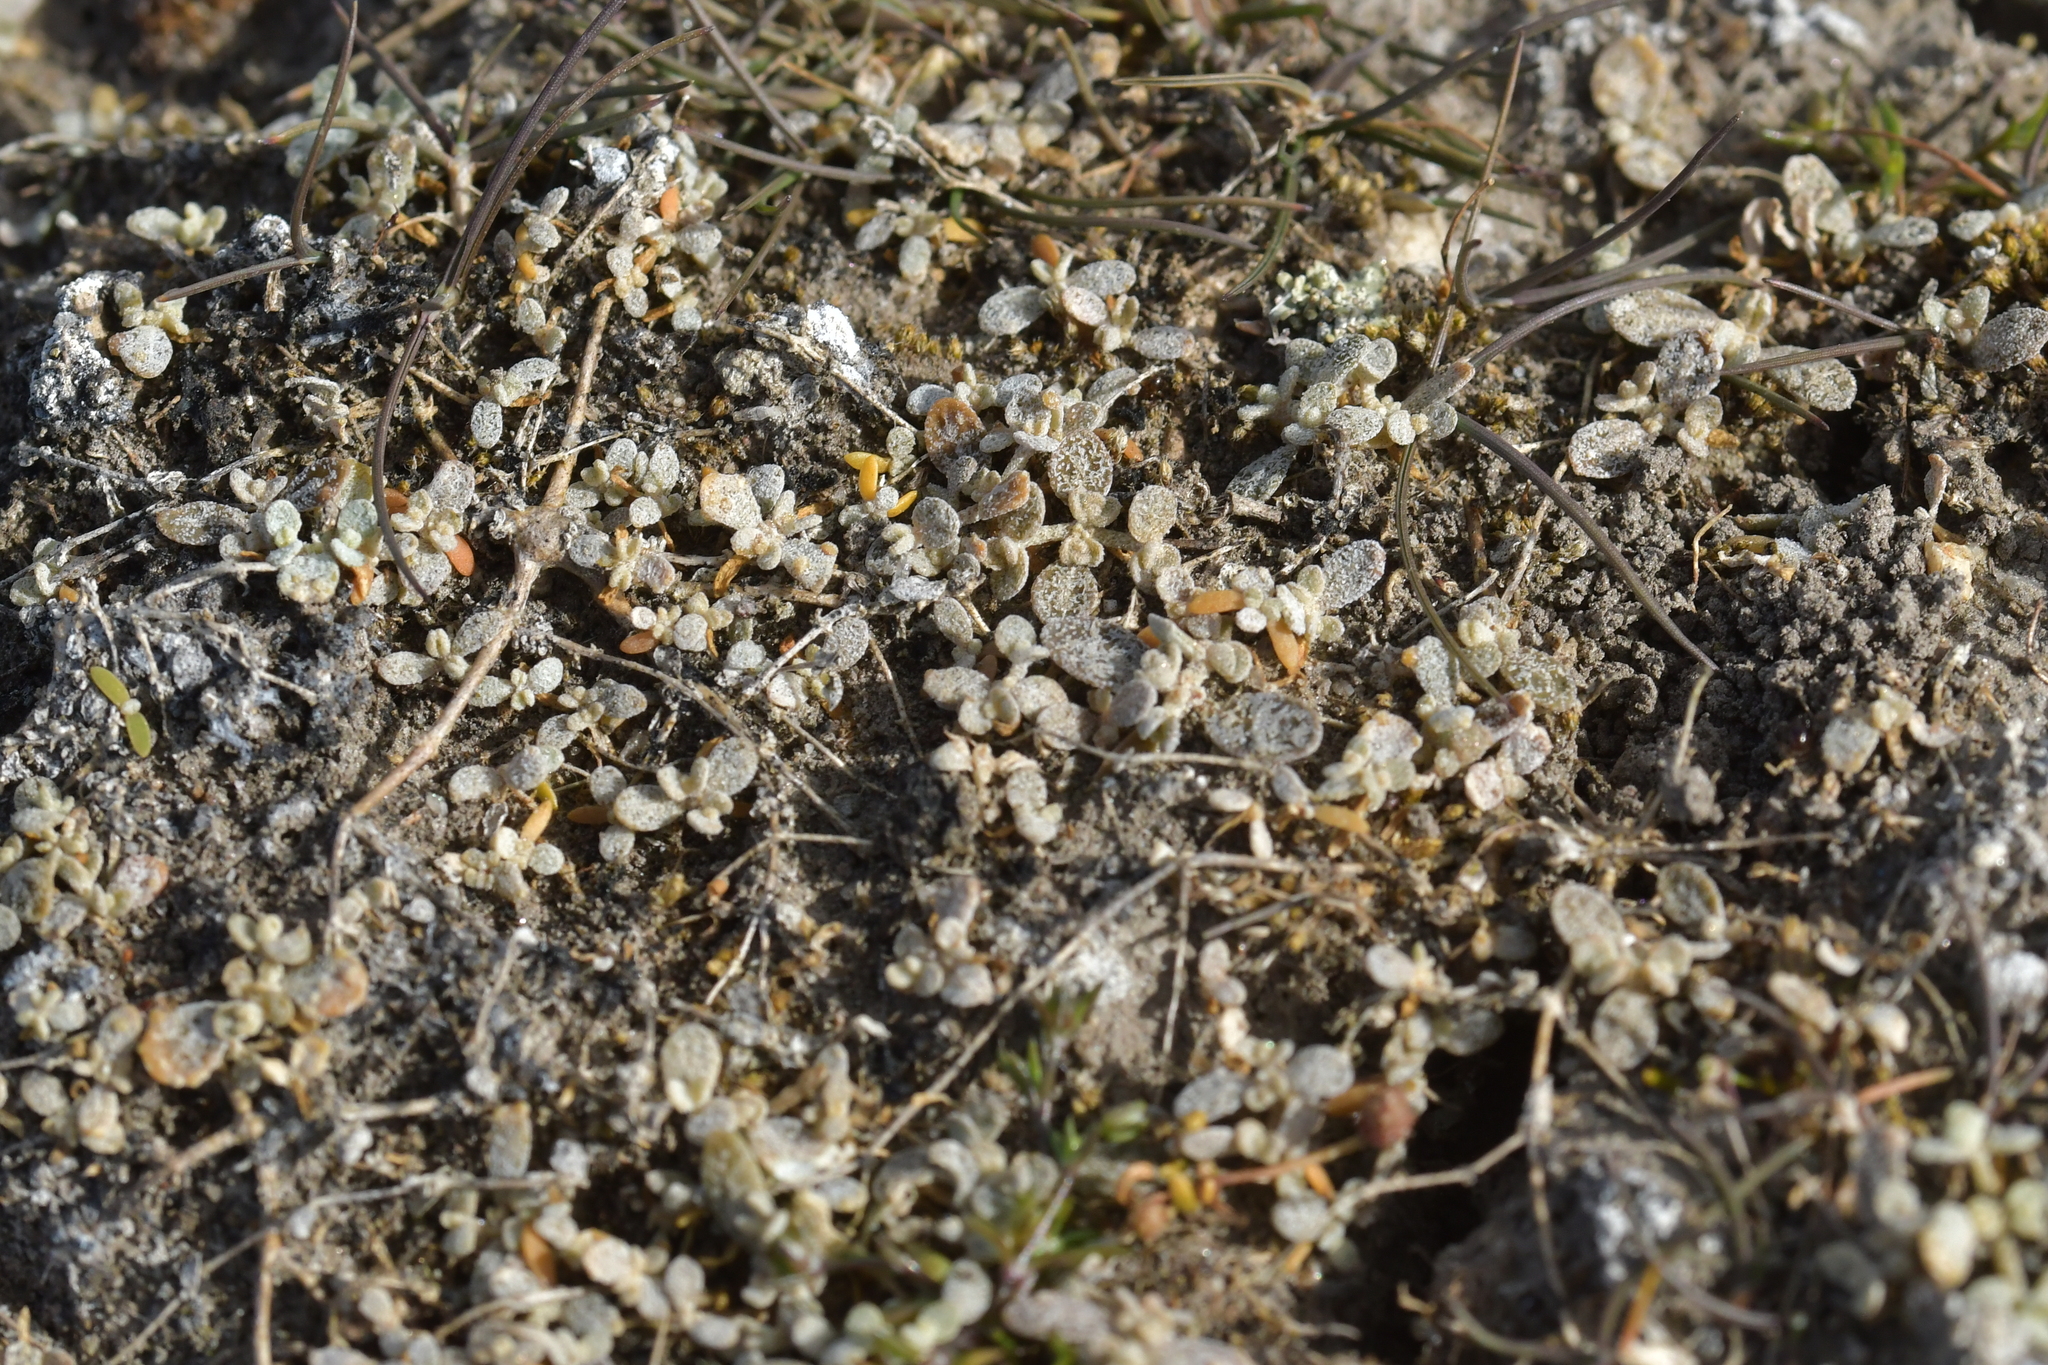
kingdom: Plantae
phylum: Tracheophyta
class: Magnoliopsida
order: Caryophyllales
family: Amaranthaceae
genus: Atriplex
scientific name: Atriplex buchananii
